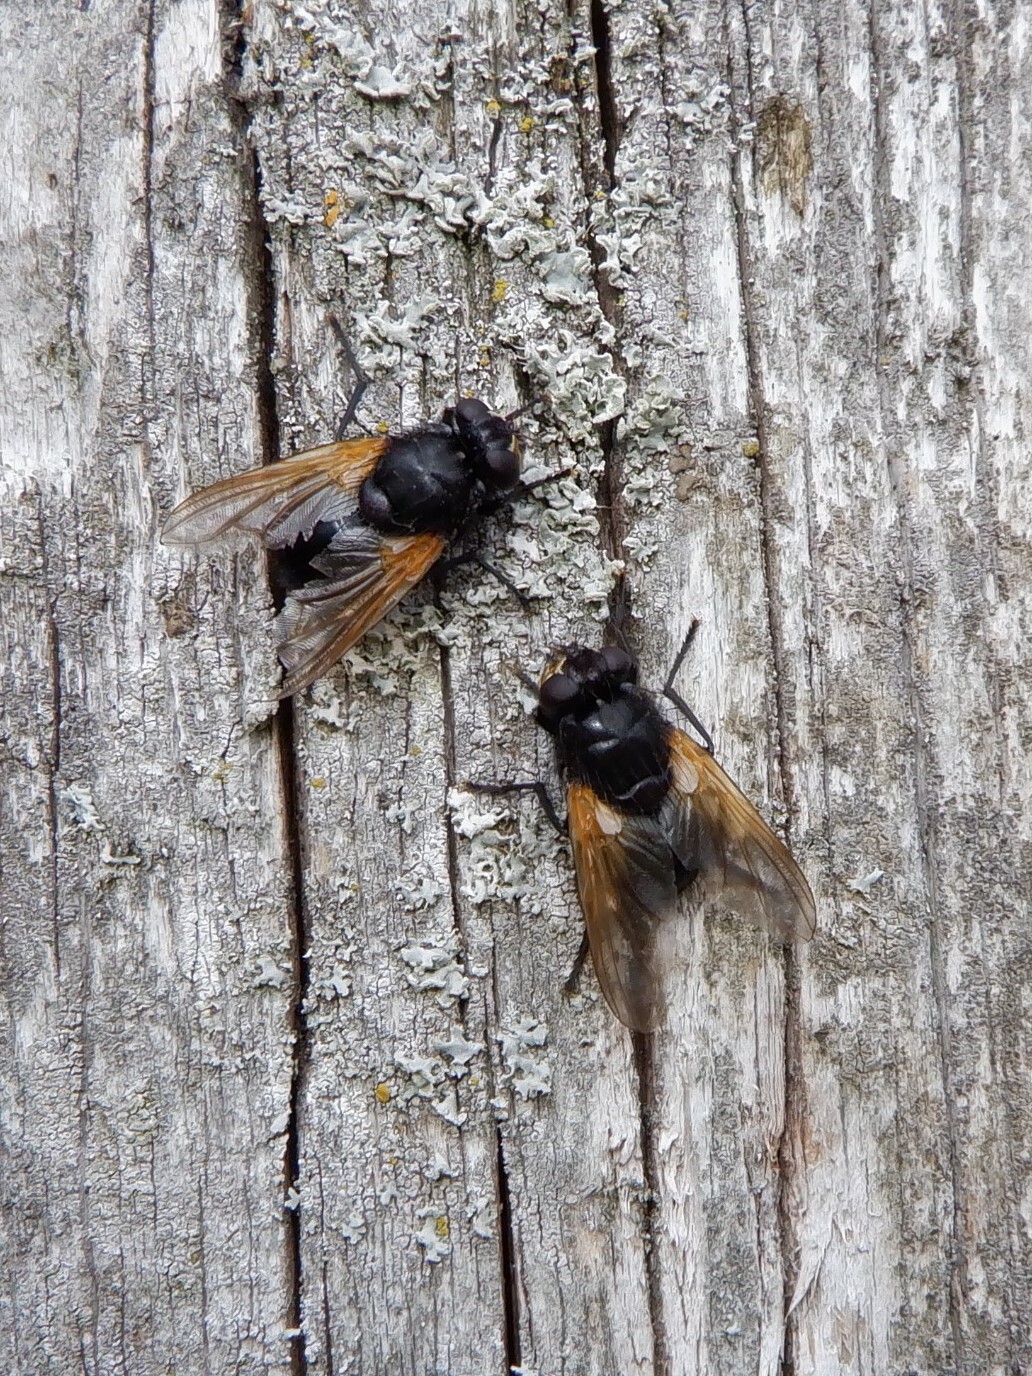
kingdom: Animalia
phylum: Arthropoda
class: Insecta
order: Diptera
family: Muscidae
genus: Mesembrina
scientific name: Mesembrina meridiana
